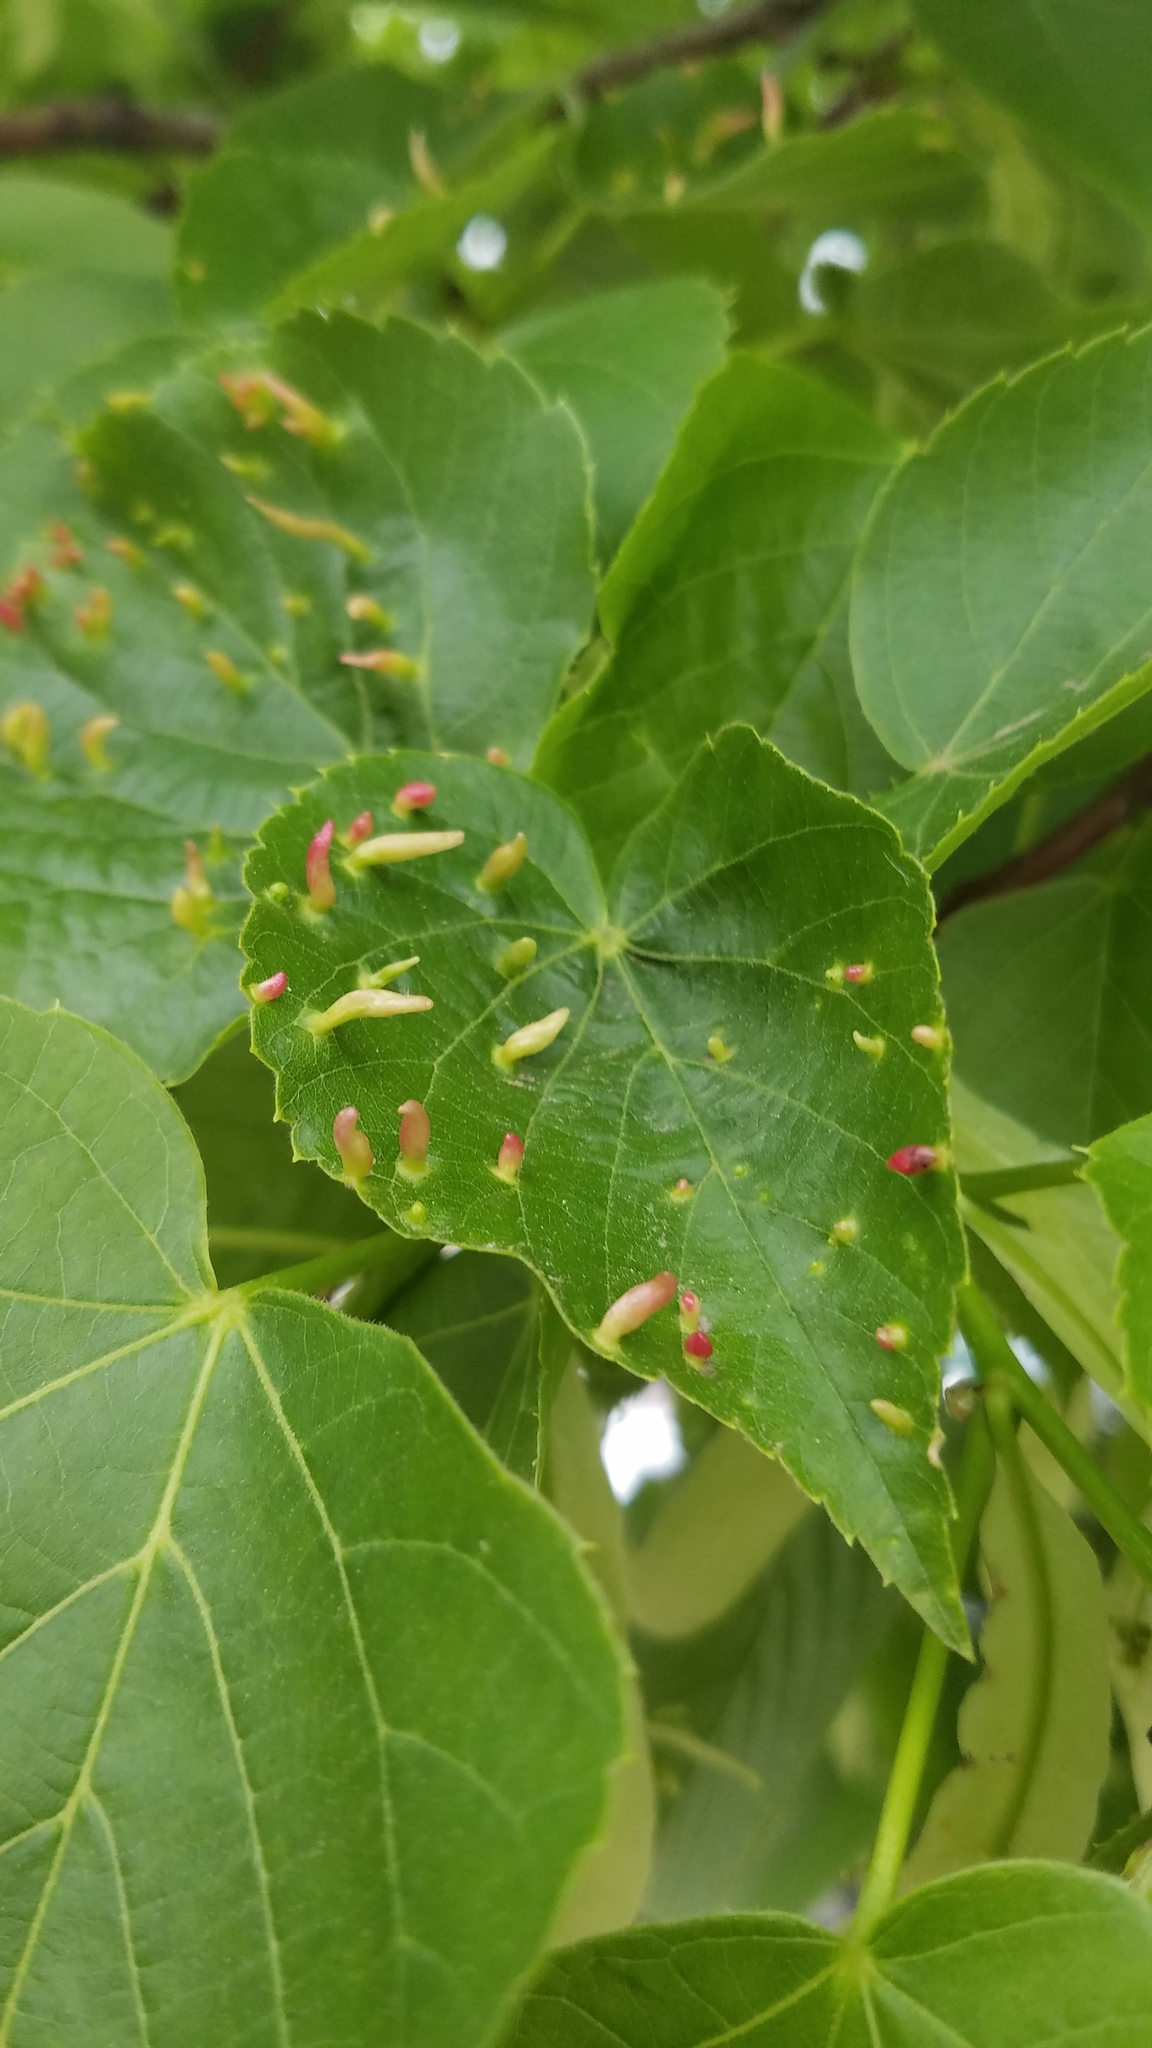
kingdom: Animalia
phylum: Arthropoda
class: Arachnida
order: Trombidiformes
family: Eriophyidae
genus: Eriophyes
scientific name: Eriophyes tiliae
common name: Red nail gall mite
